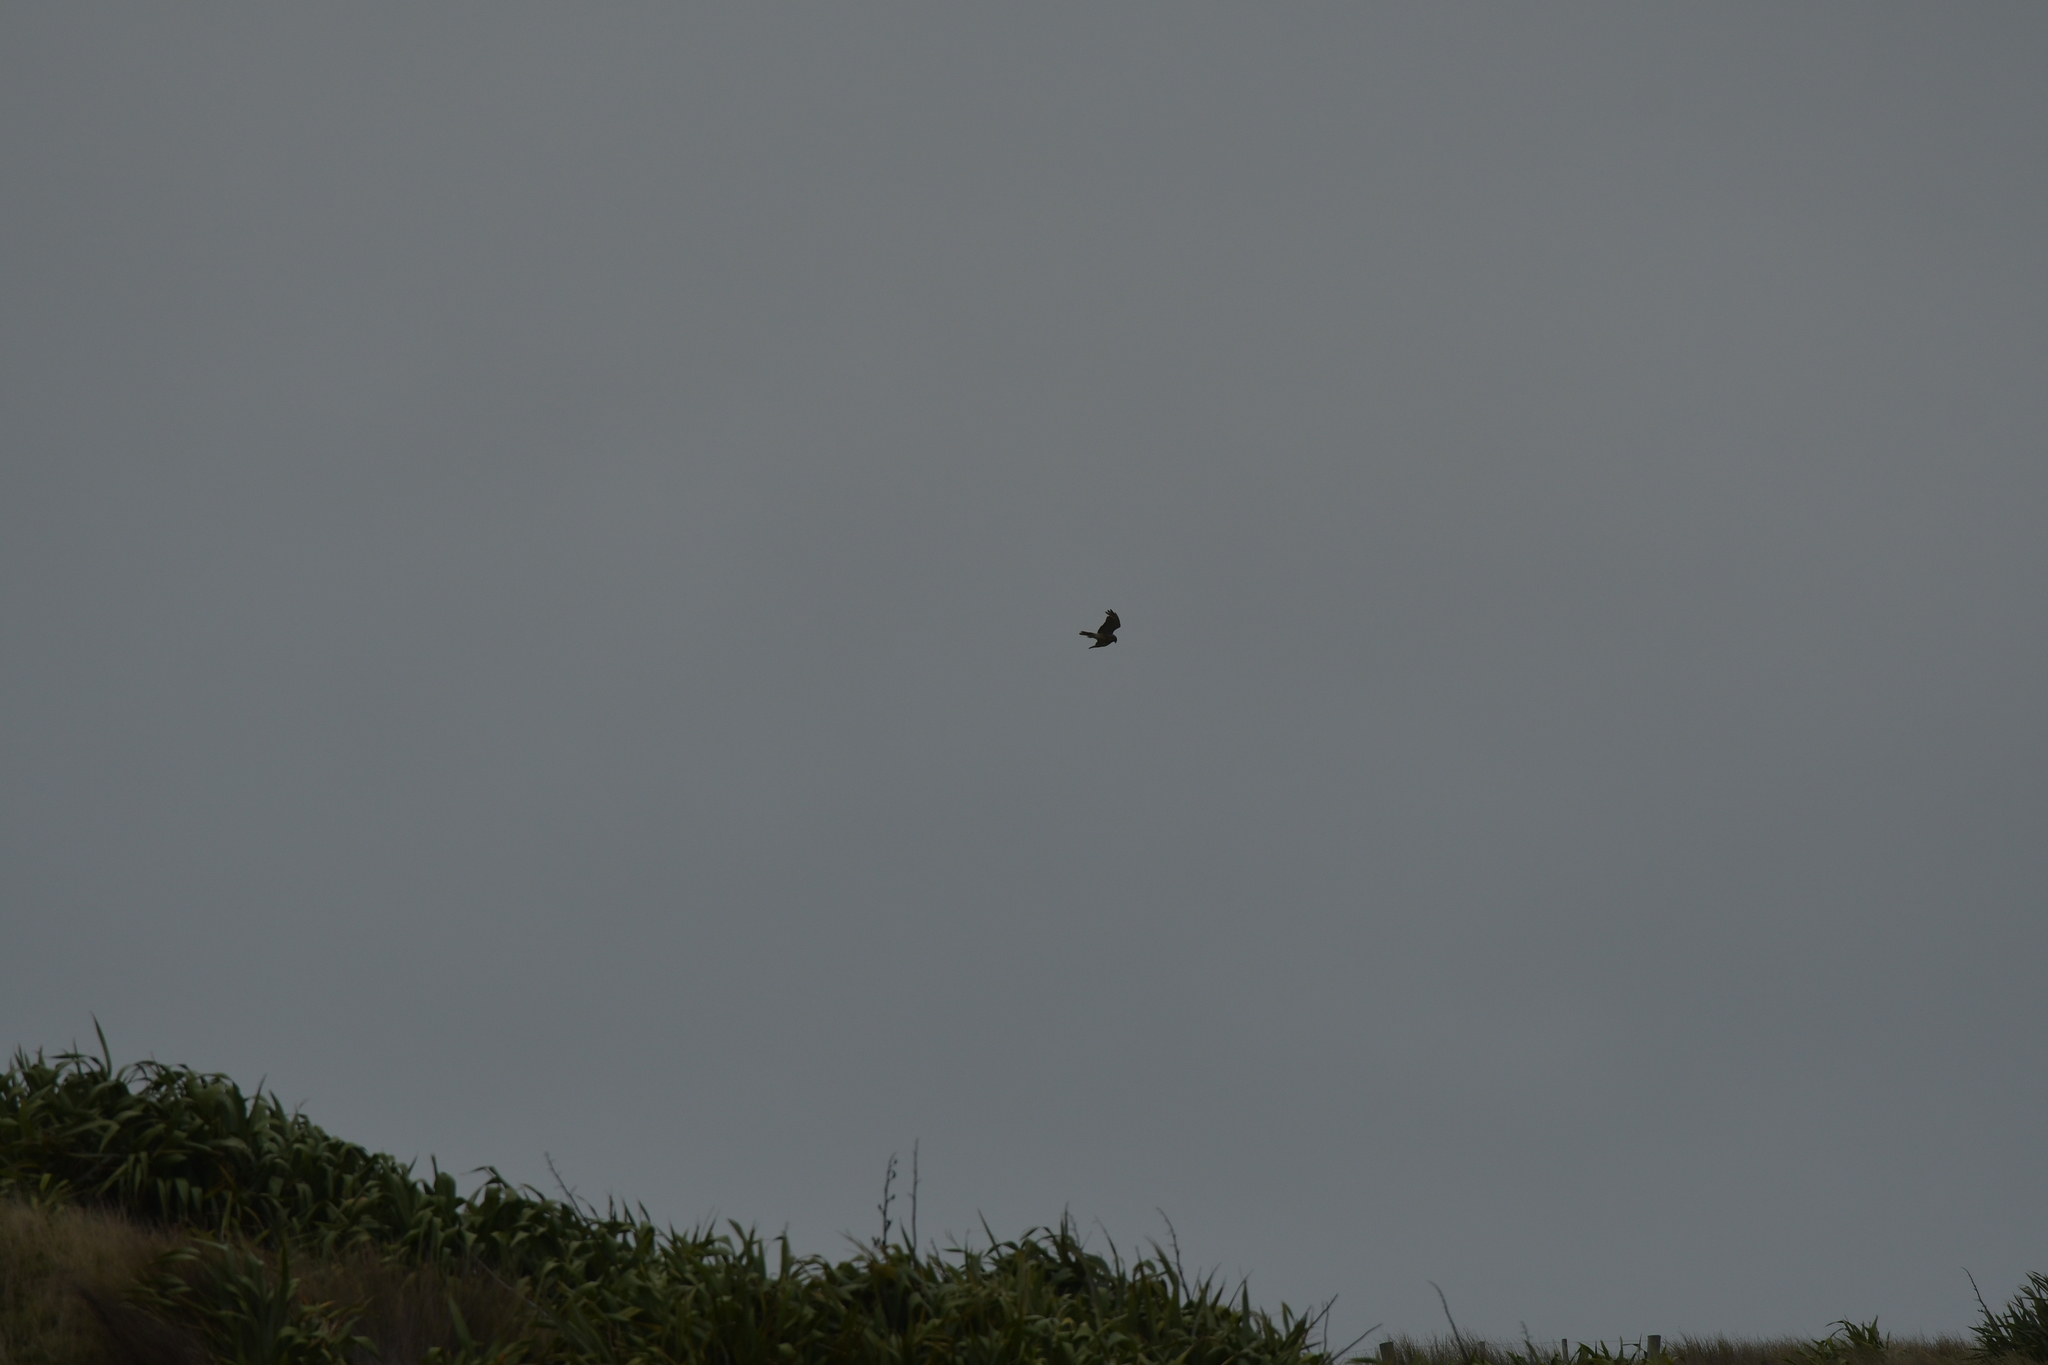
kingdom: Animalia
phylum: Chordata
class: Aves
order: Accipitriformes
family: Accipitridae
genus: Circus
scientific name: Circus approximans
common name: Swamp harrier
